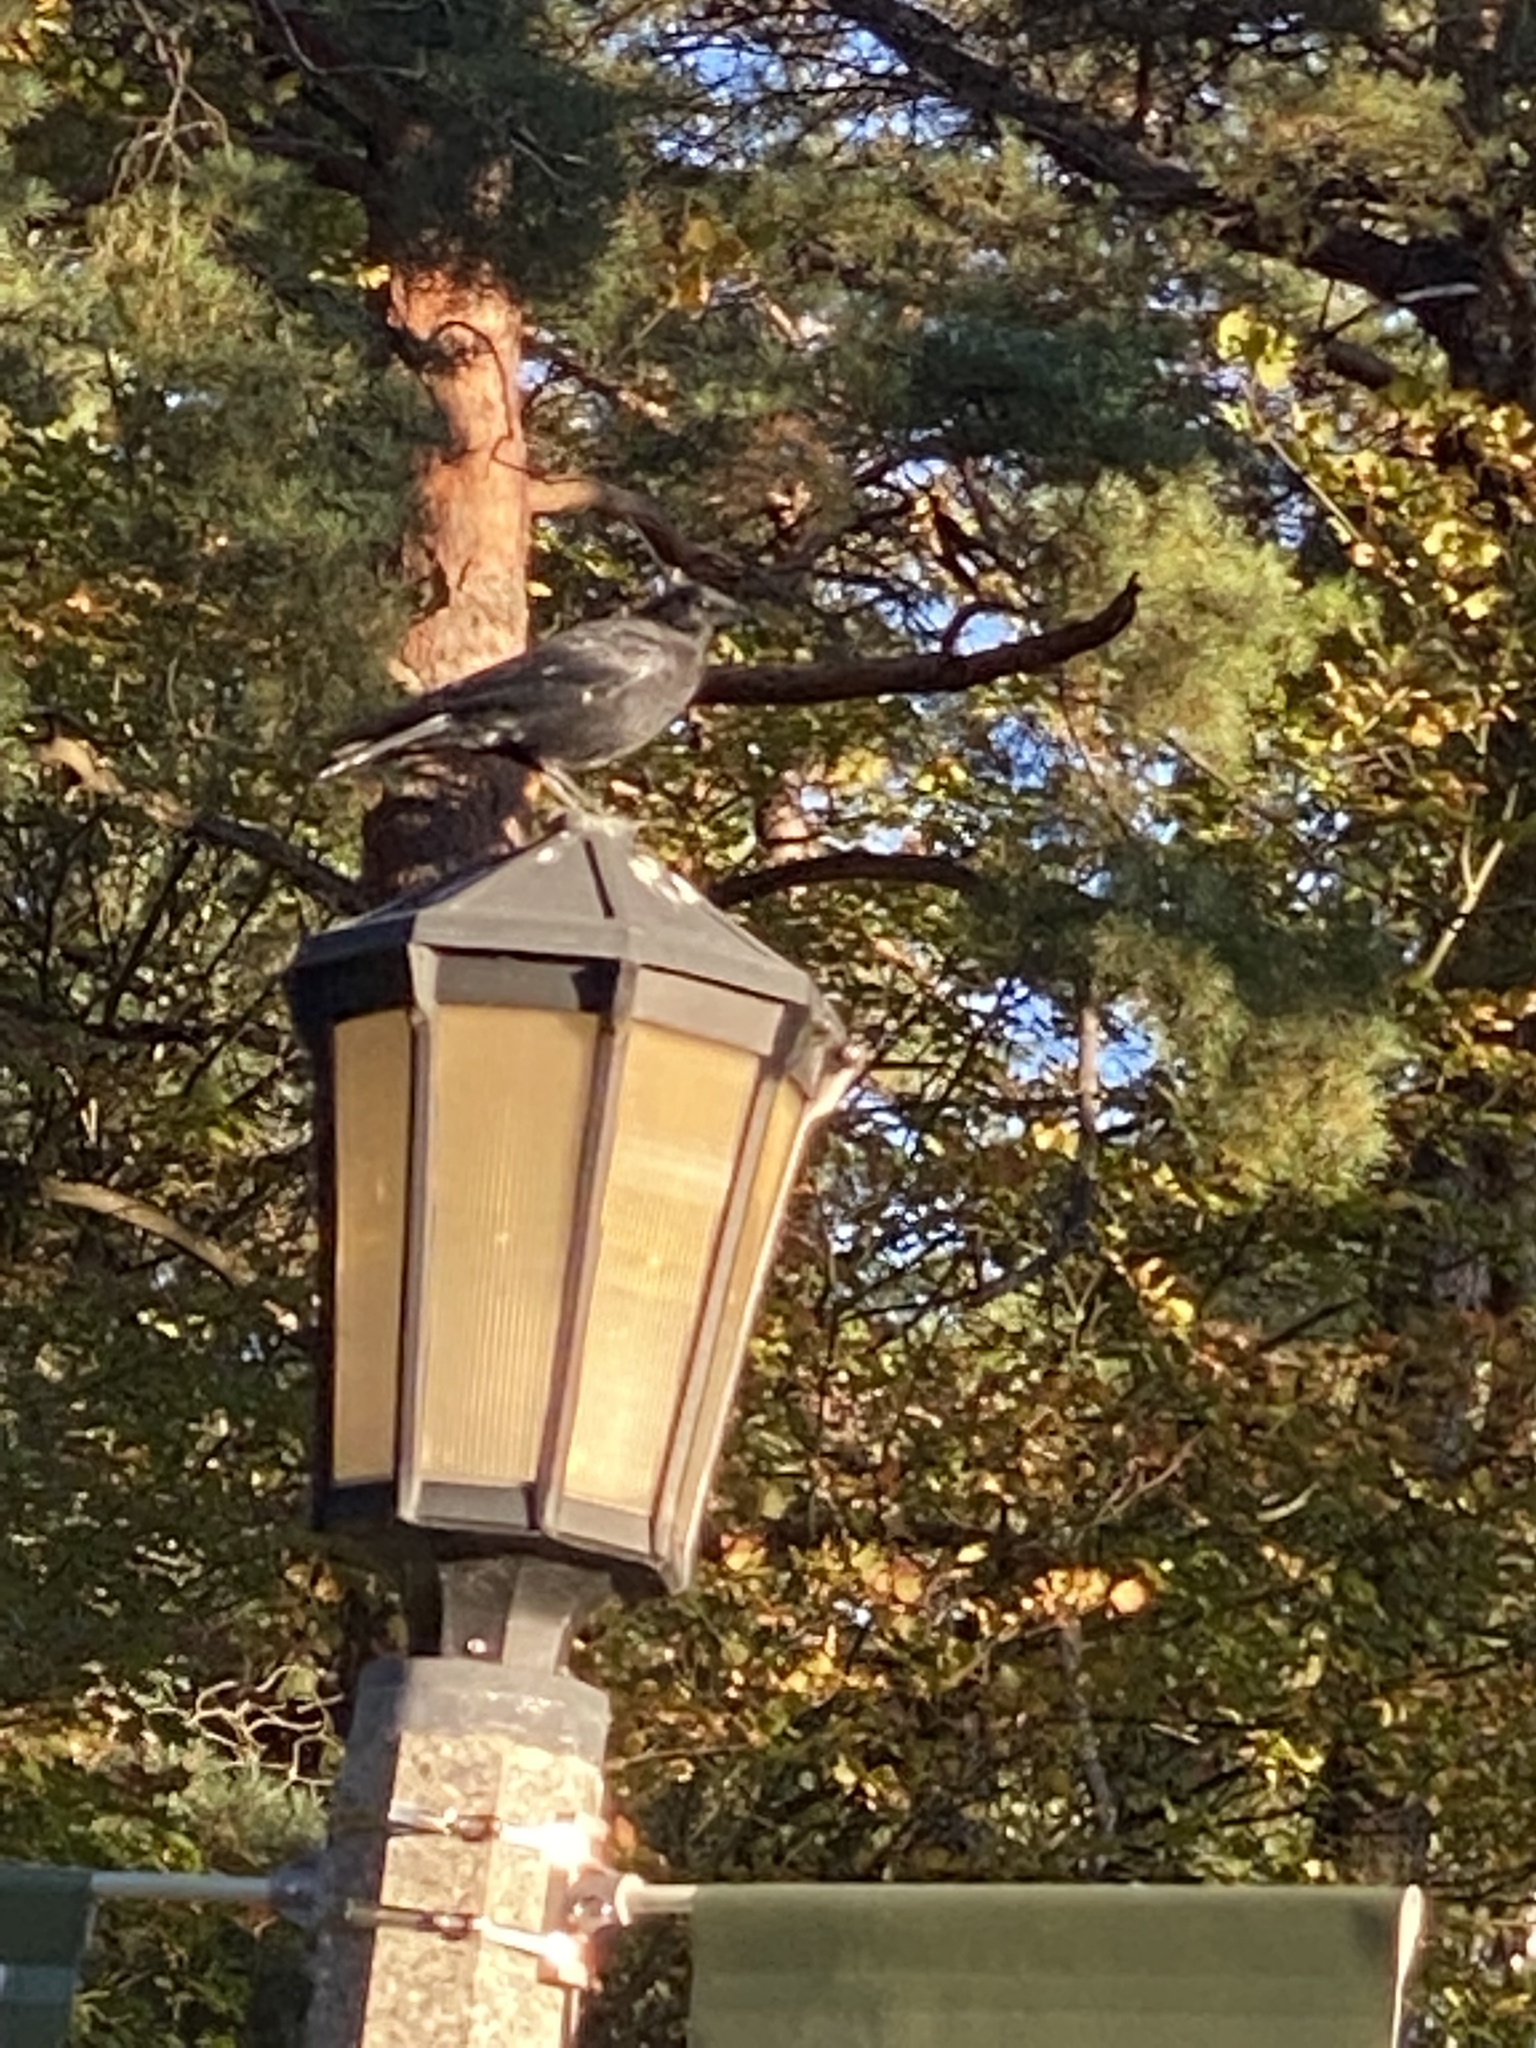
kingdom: Animalia
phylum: Chordata
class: Aves
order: Passeriformes
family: Corvidae
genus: Corvus
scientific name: Corvus brachyrhynchos
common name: American crow
